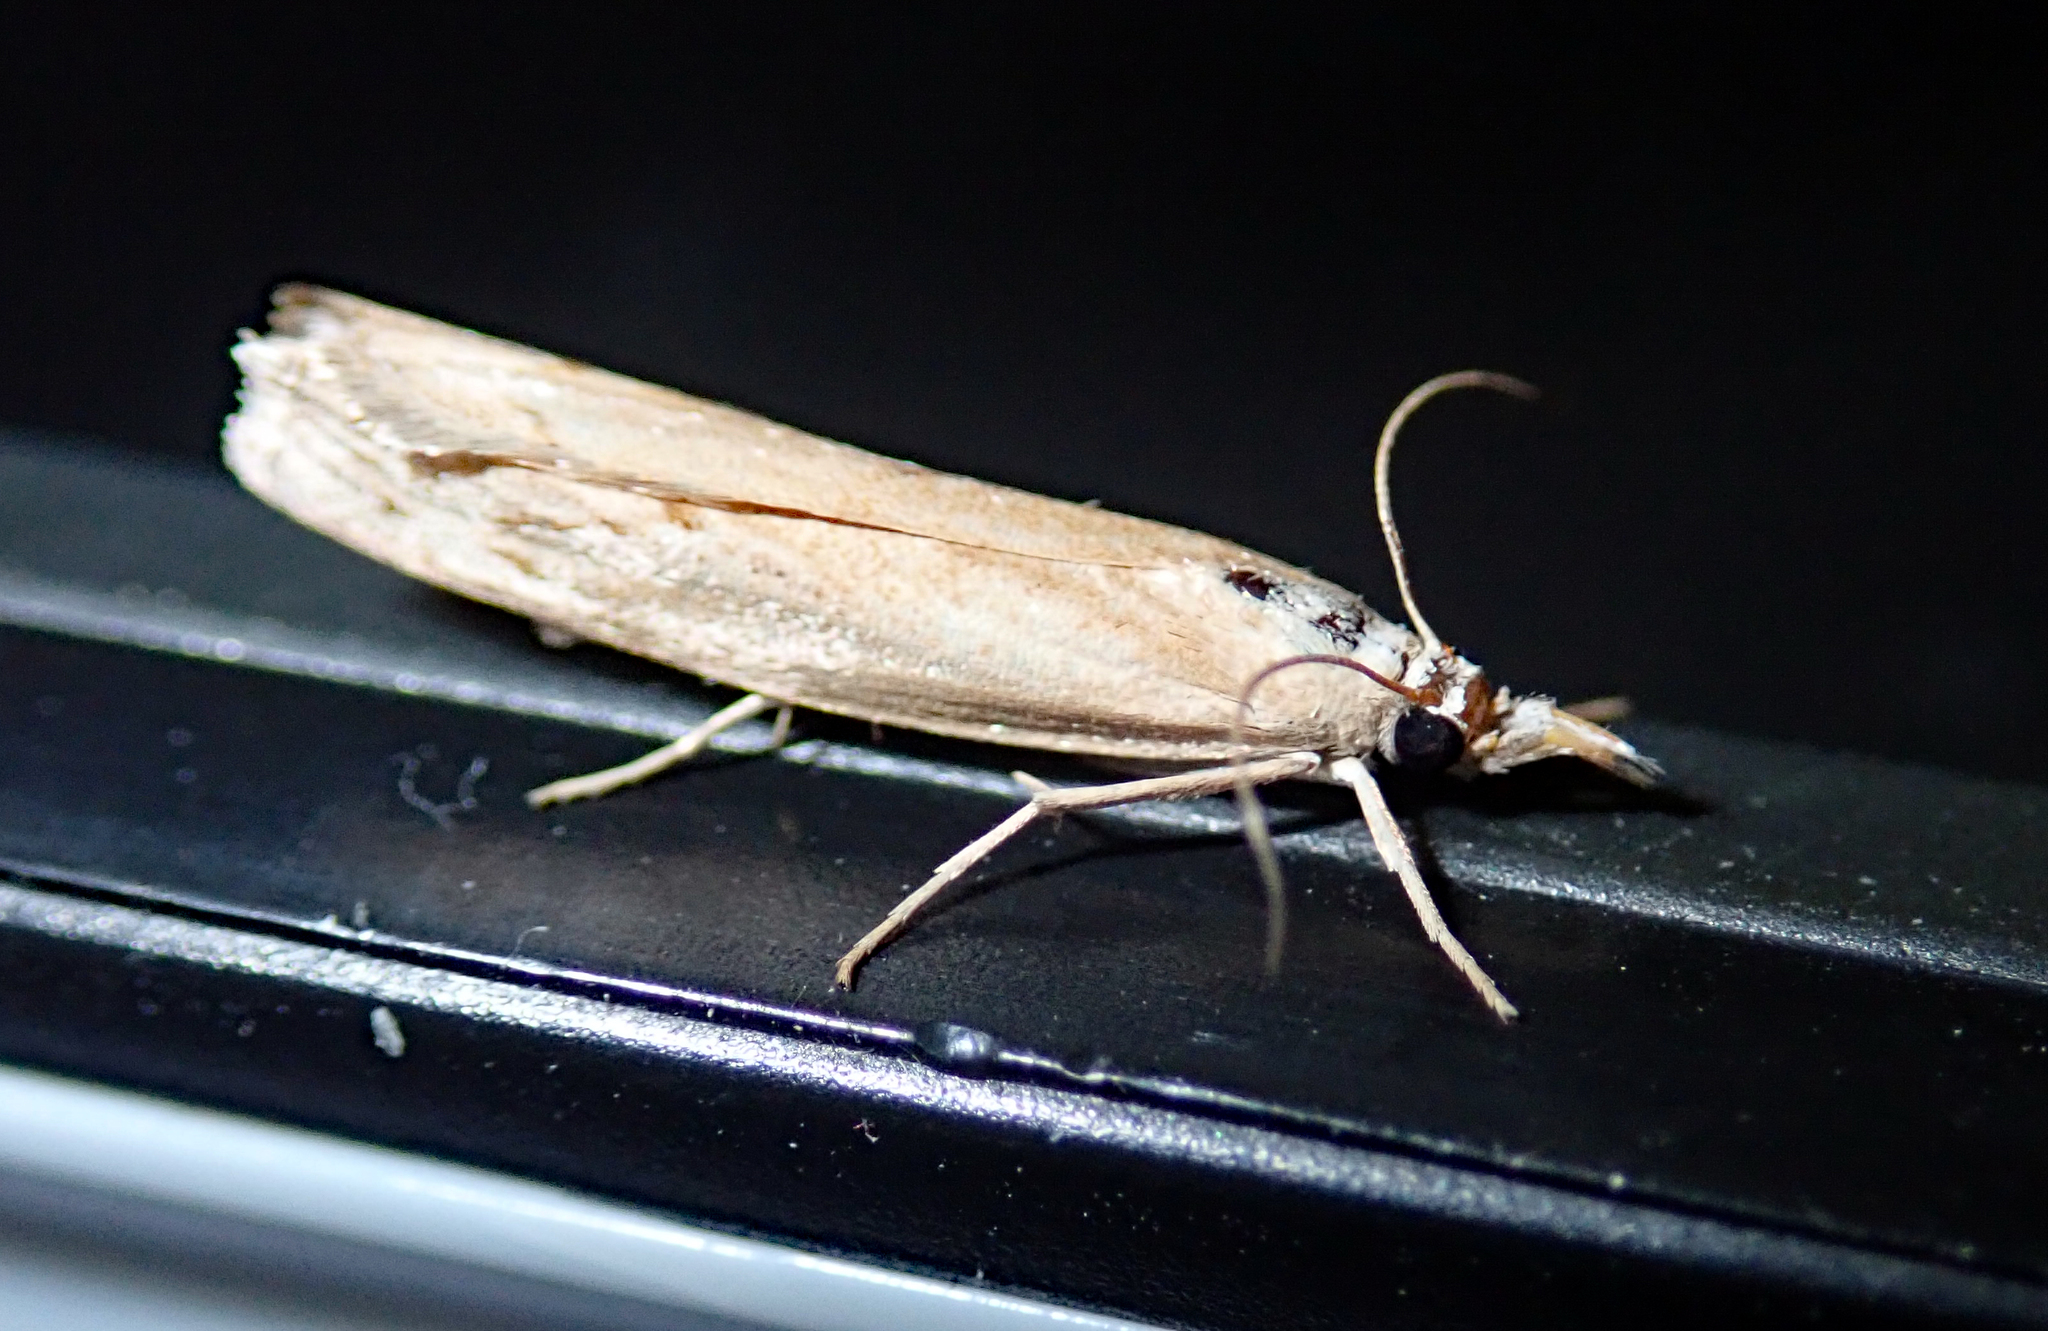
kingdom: Animalia
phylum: Arthropoda
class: Insecta
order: Lepidoptera
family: Crambidae
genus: Culladia
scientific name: Culladia cuneiferellus
